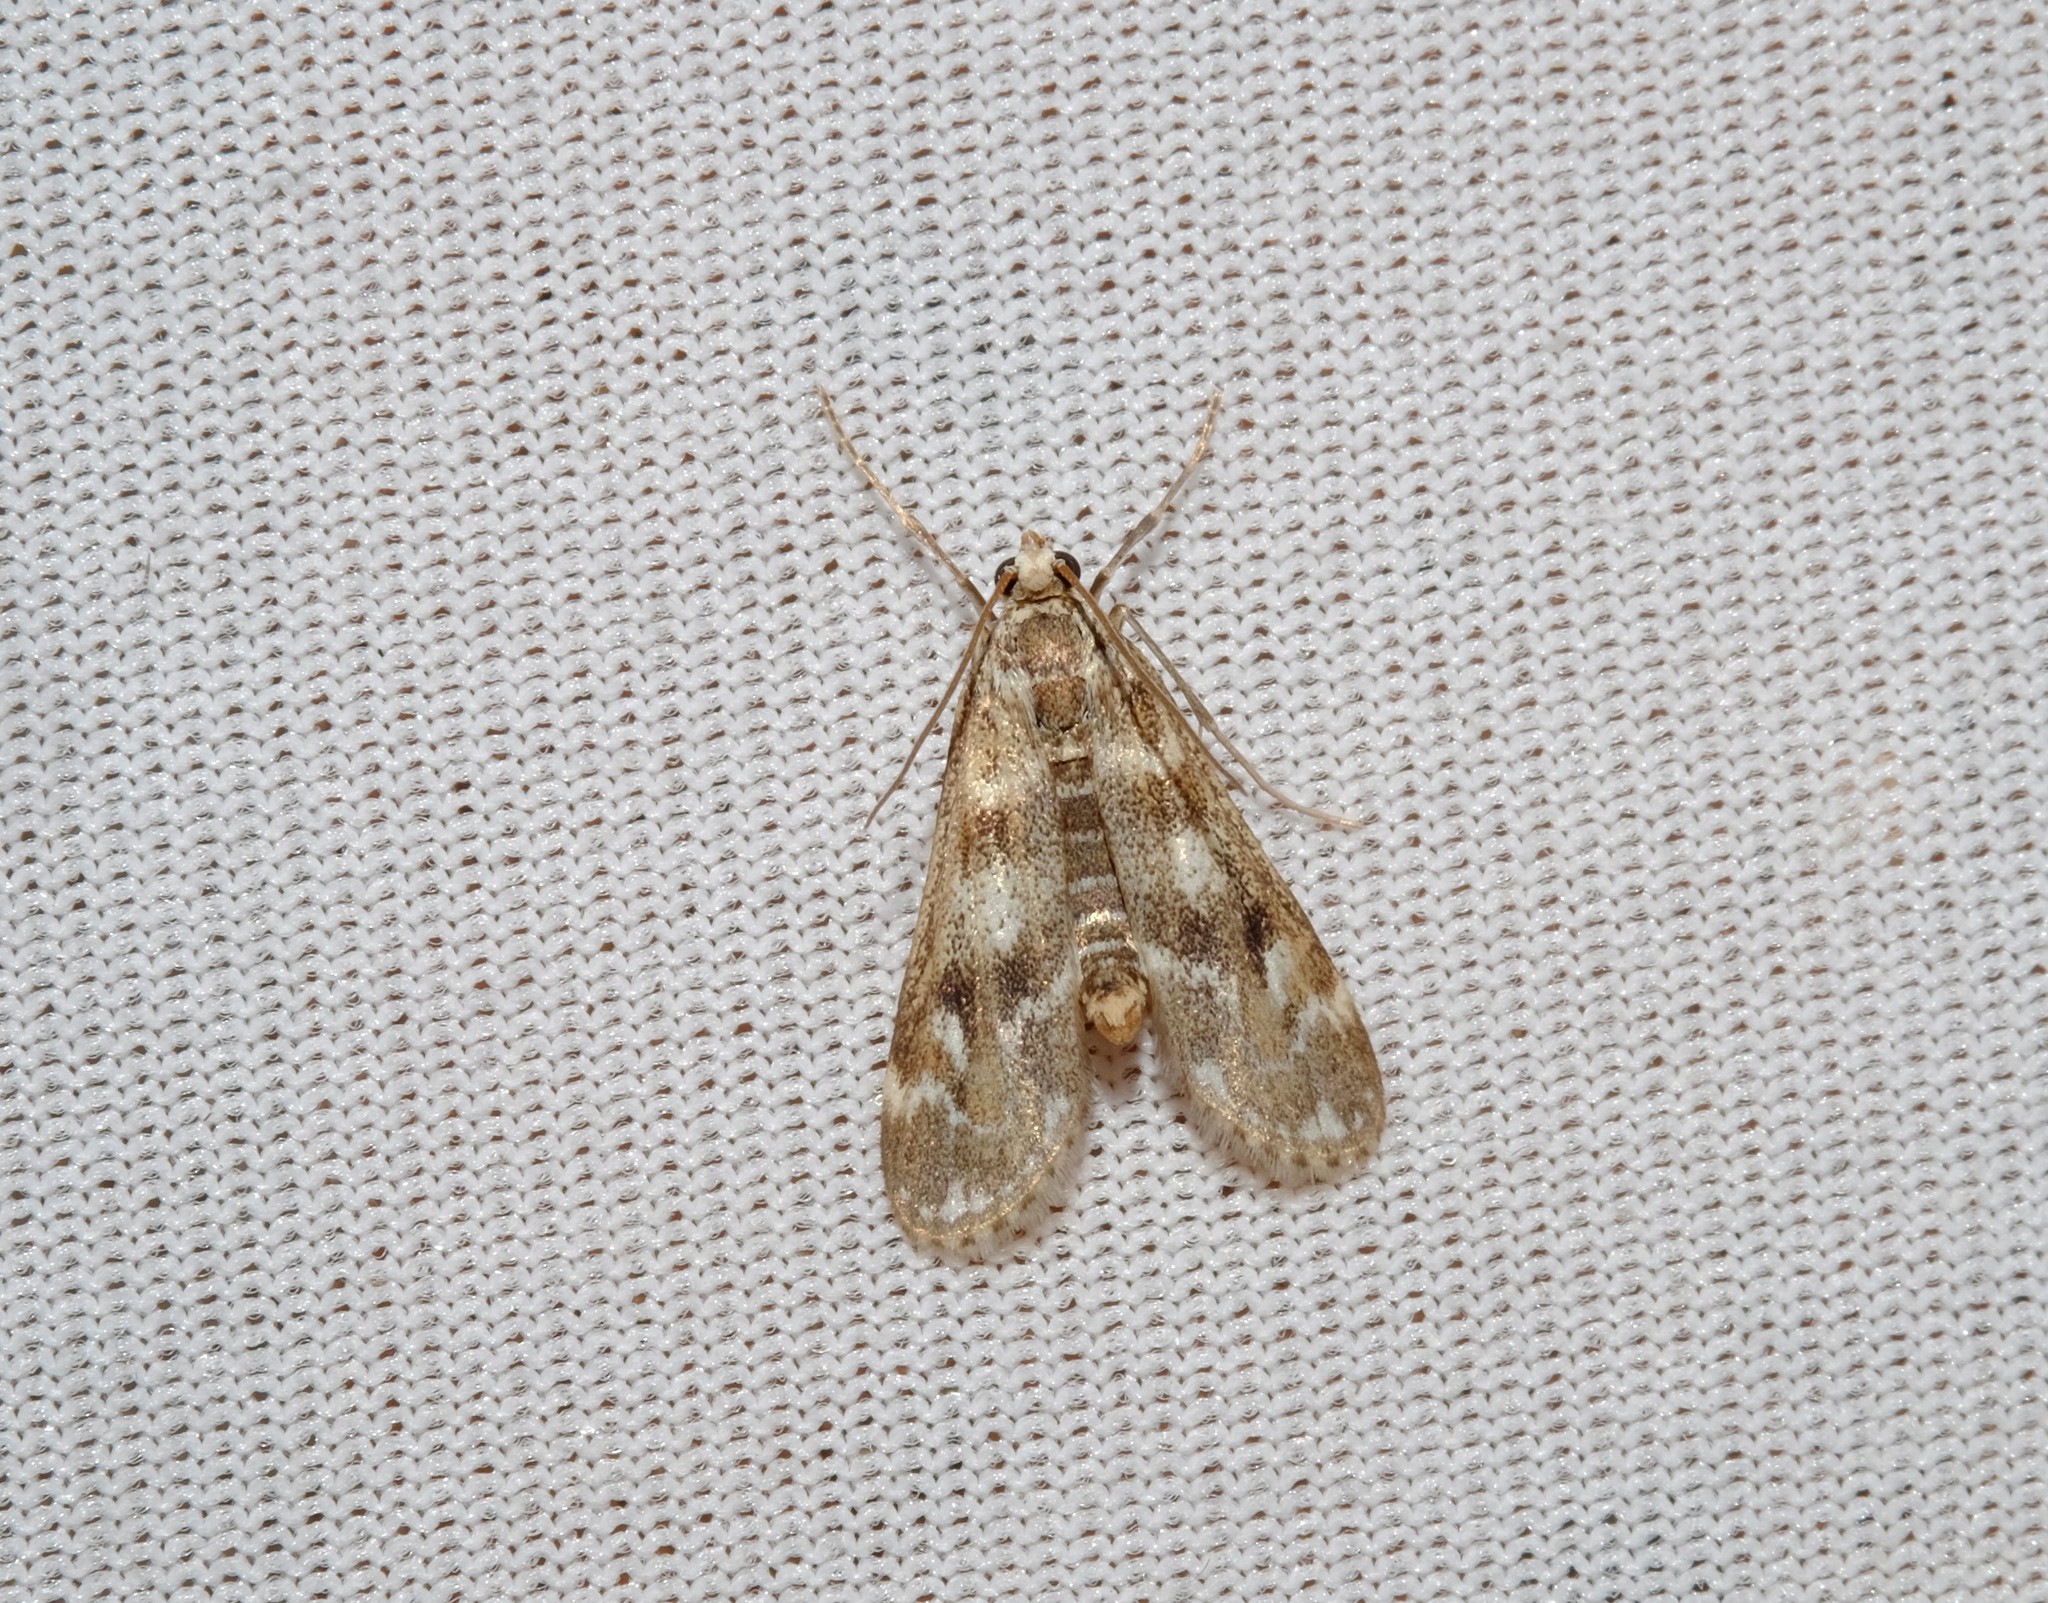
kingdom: Animalia
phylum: Arthropoda
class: Insecta
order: Lepidoptera
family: Crambidae
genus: Hygraula
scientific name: Hygraula nitens
